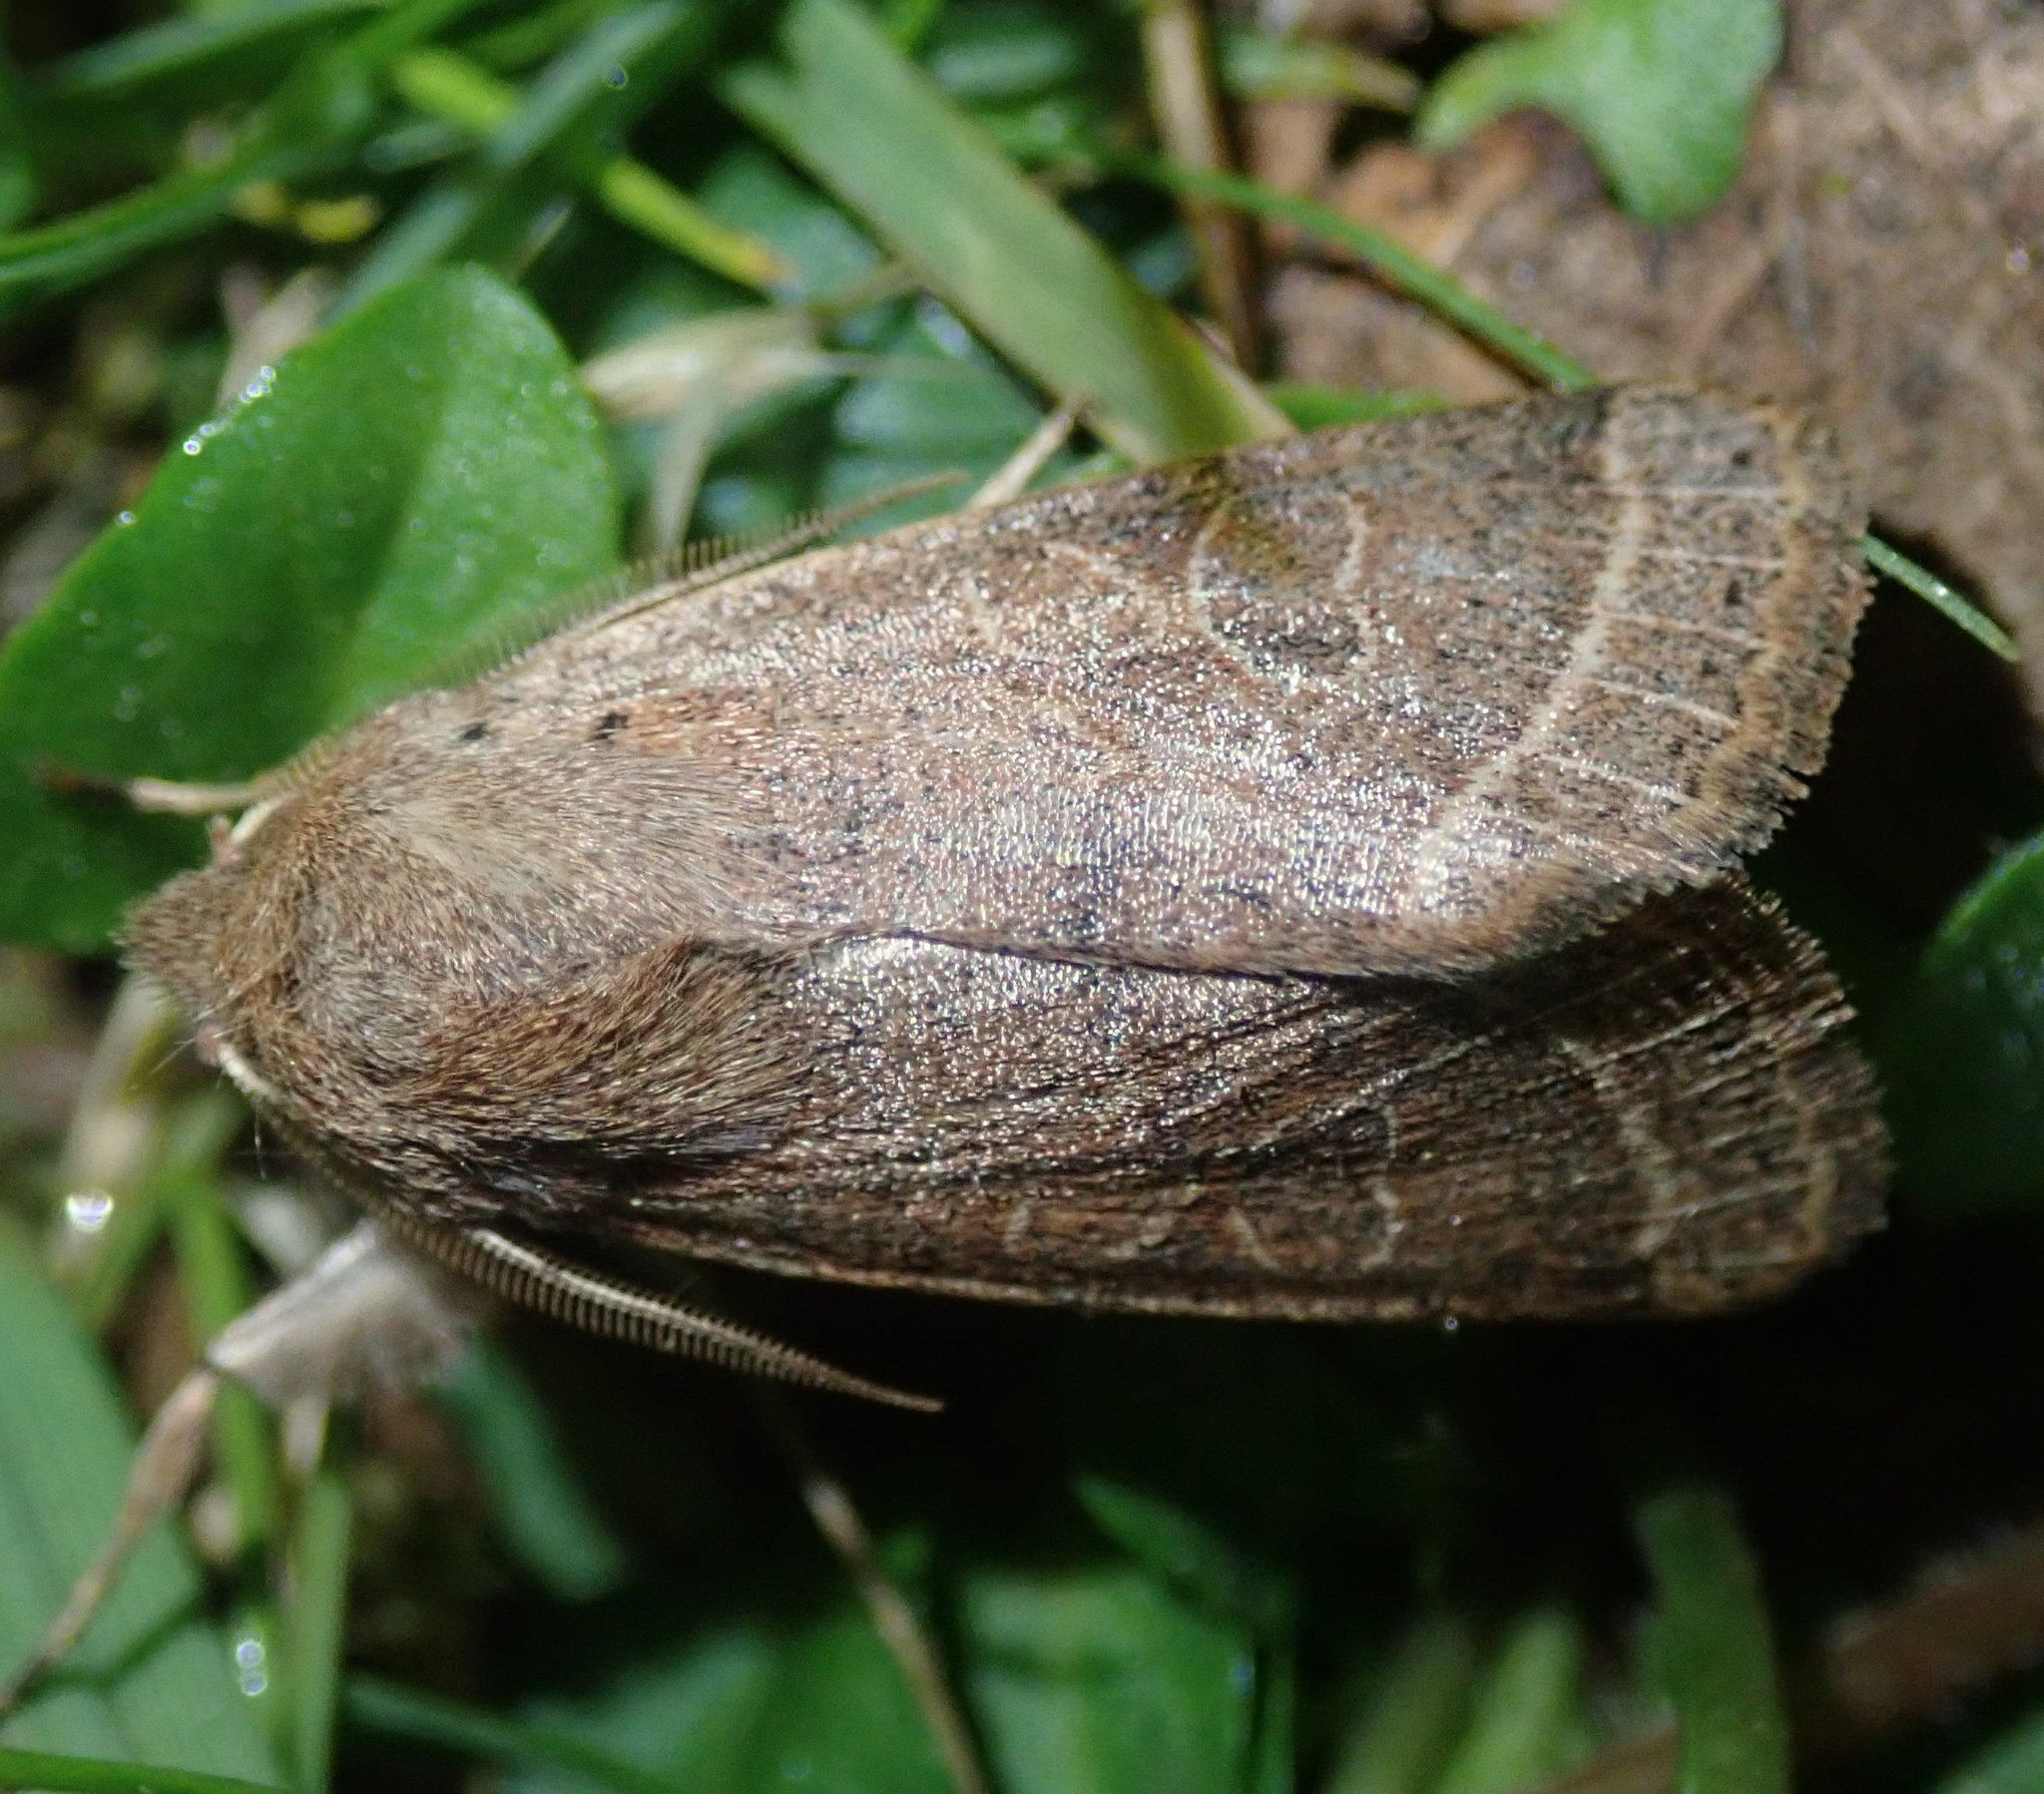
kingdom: Animalia
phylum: Arthropoda
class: Insecta
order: Lepidoptera
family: Noctuidae
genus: Orthosia
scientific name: Orthosia cerasi
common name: Common quaker
